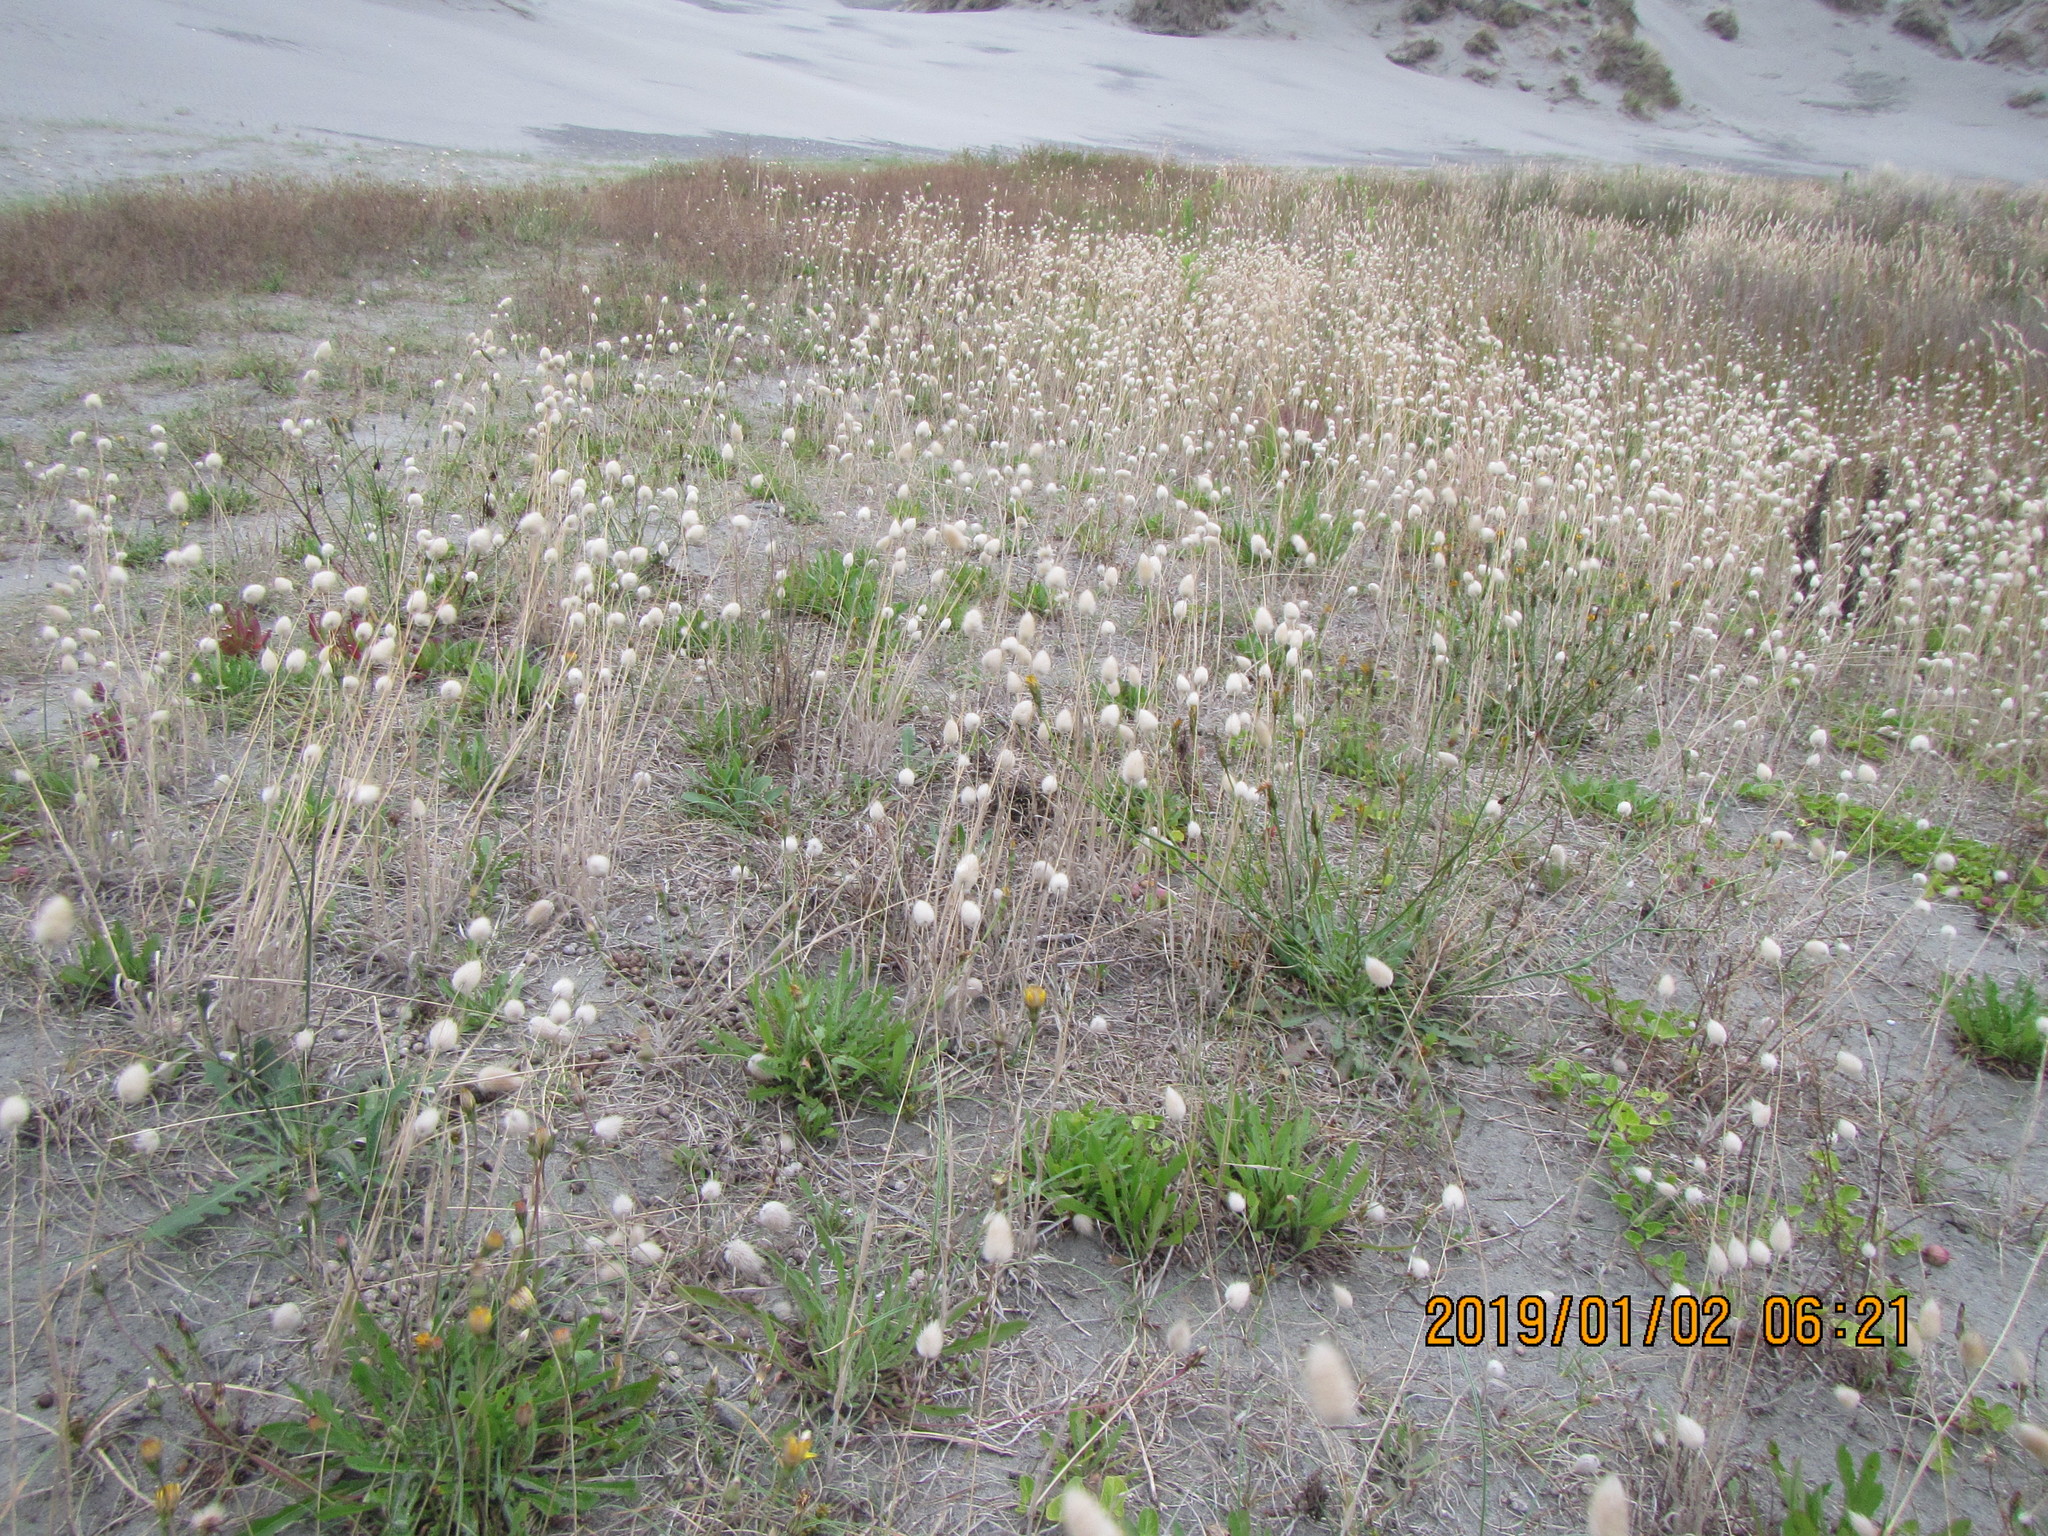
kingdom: Plantae
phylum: Tracheophyta
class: Liliopsida
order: Poales
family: Poaceae
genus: Lagurus
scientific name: Lagurus ovatus
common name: Hare's-tail
